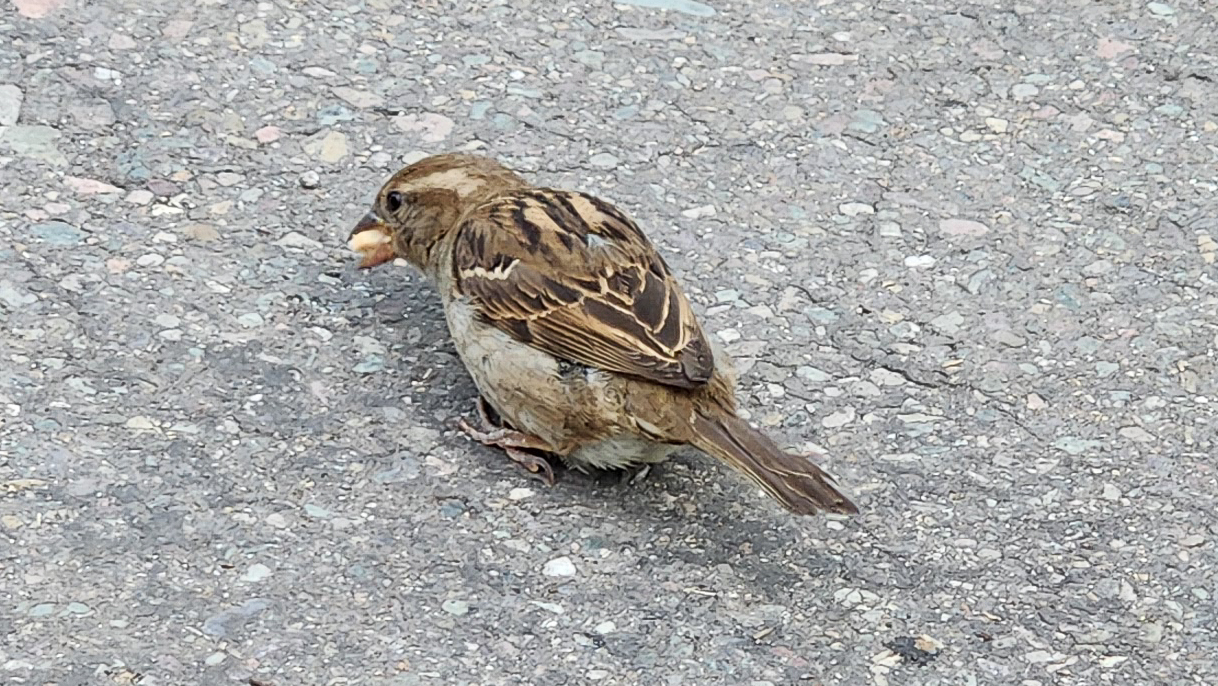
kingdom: Animalia
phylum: Chordata
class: Aves
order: Passeriformes
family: Passeridae
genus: Passer
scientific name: Passer domesticus
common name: House sparrow
